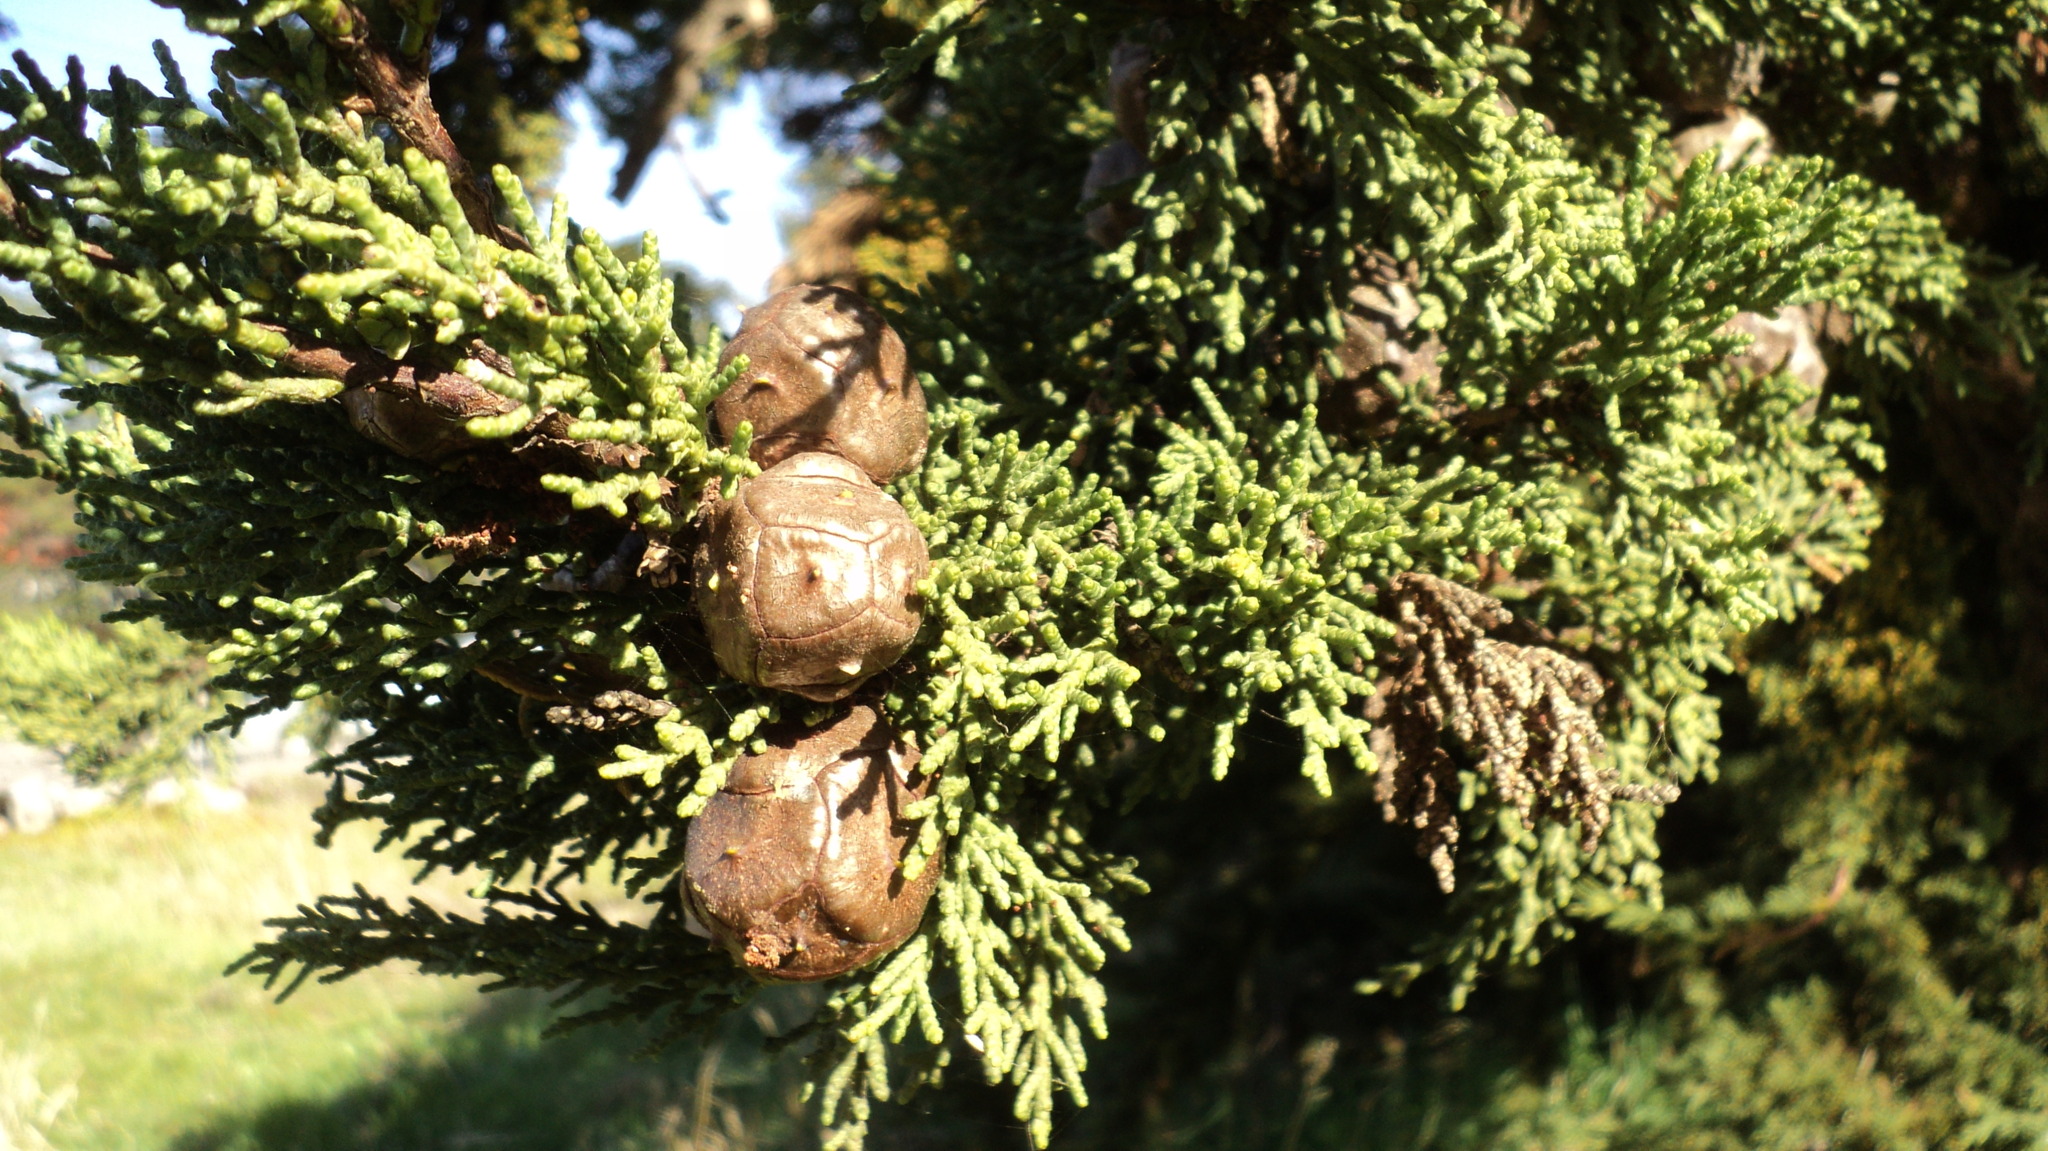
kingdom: Plantae
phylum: Tracheophyta
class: Pinopsida
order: Pinales
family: Cupressaceae
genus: Cupressus
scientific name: Cupressus macrocarpa
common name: Monterey cypress
